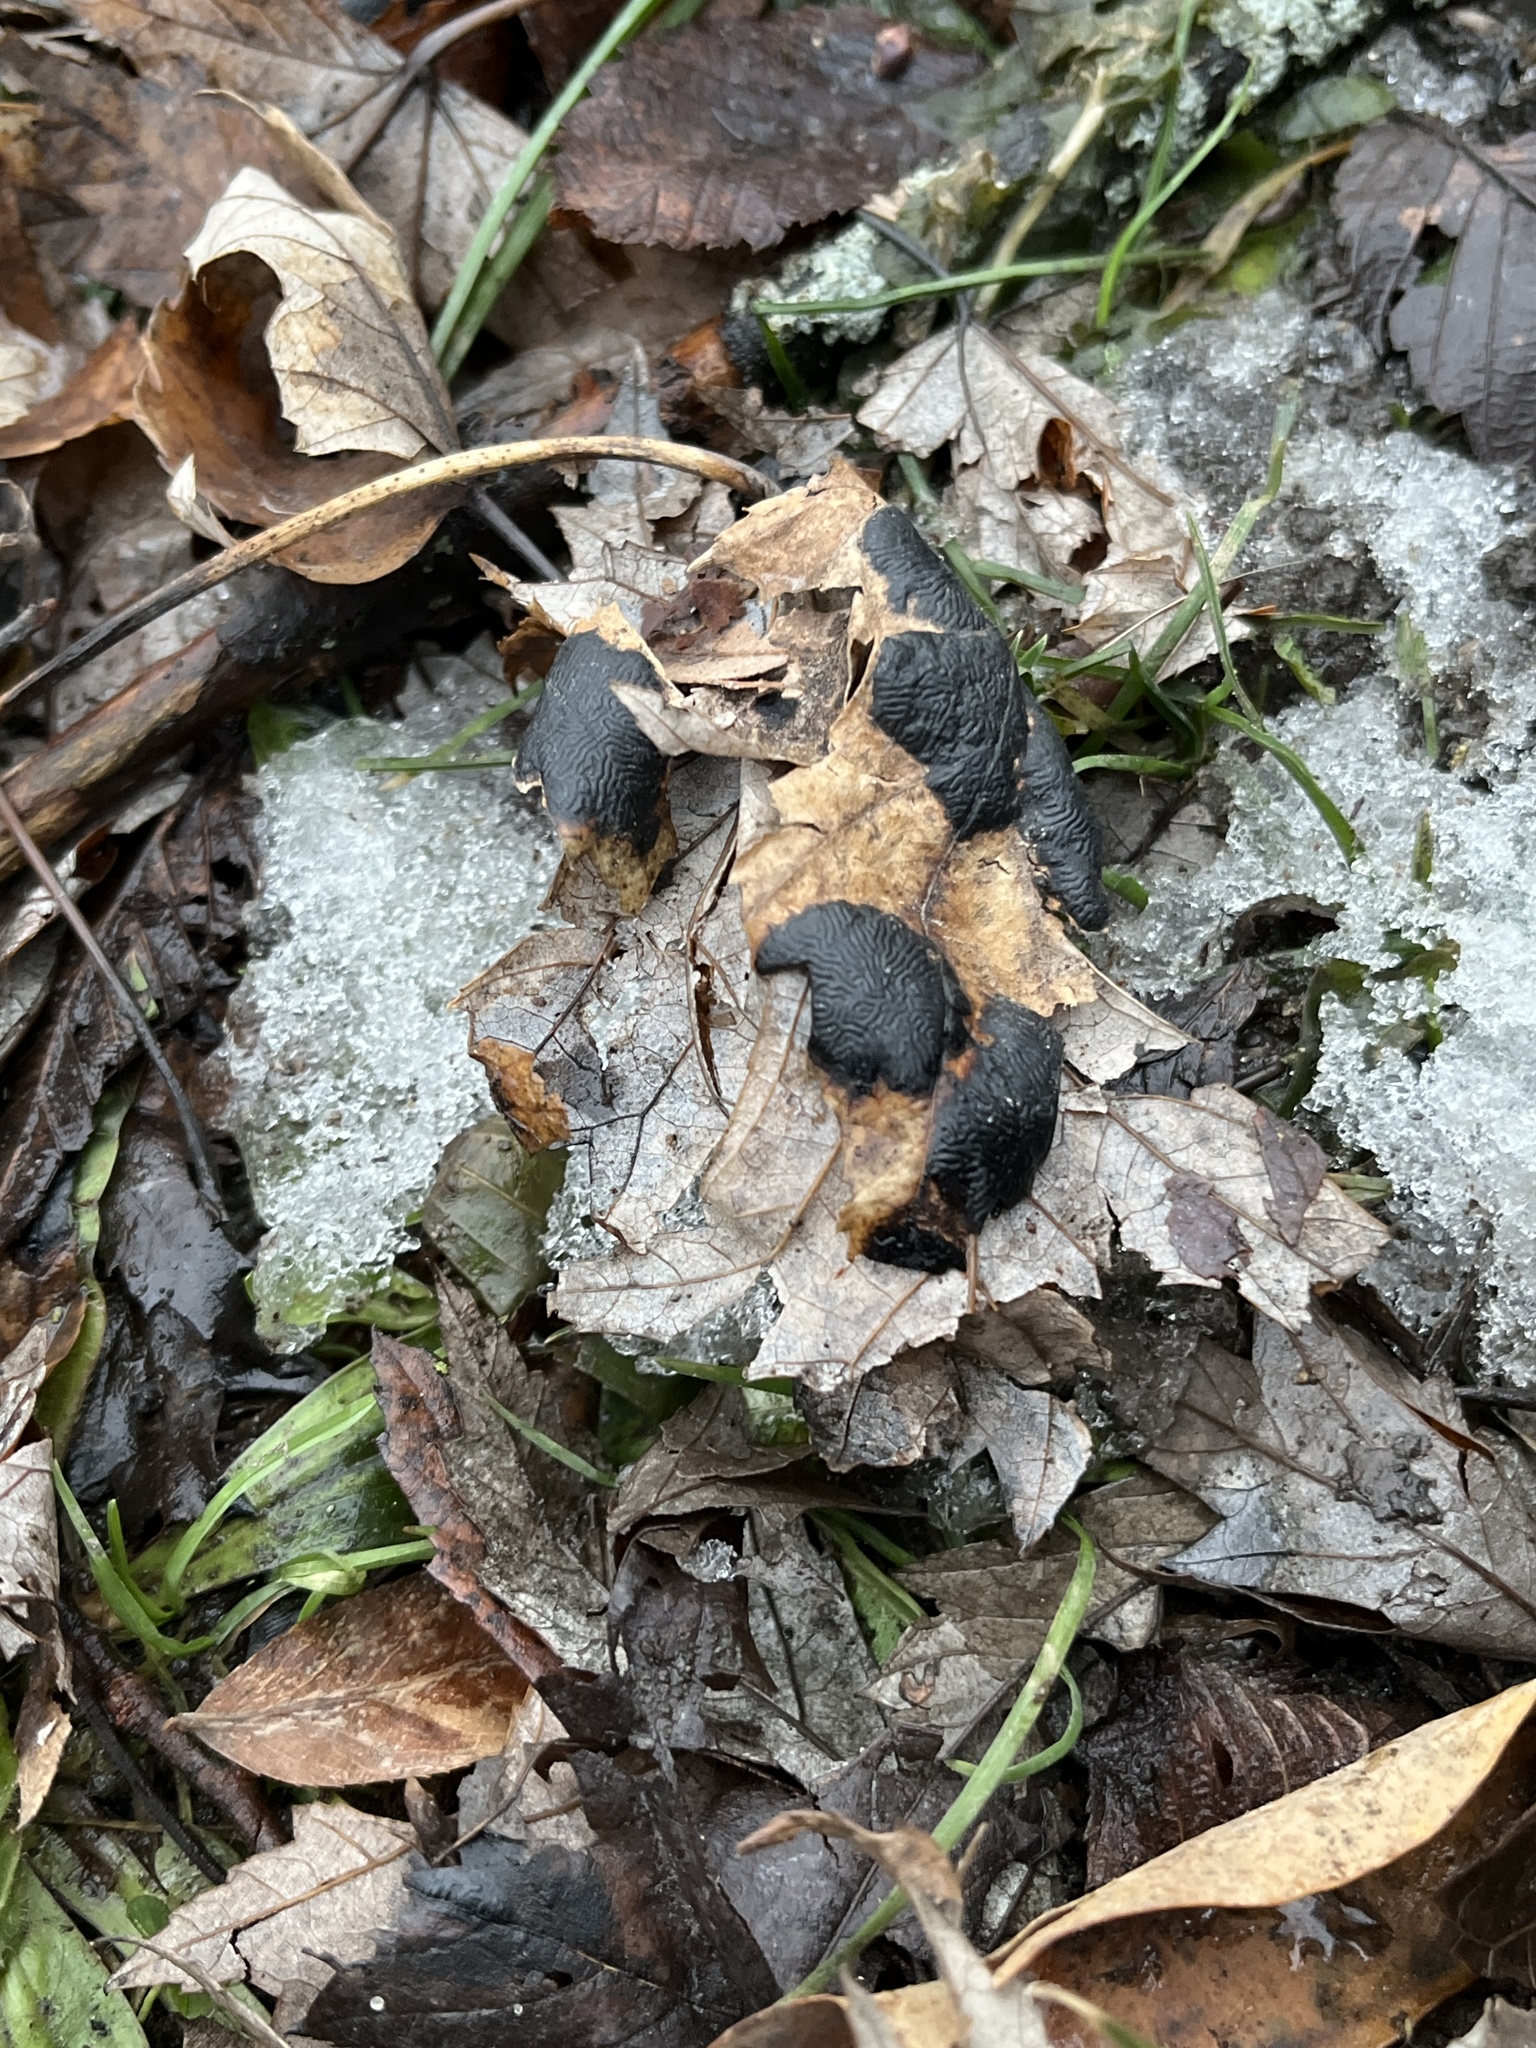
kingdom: Fungi
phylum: Ascomycota
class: Leotiomycetes
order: Rhytismatales
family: Rhytismataceae
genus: Rhytisma
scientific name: Rhytisma americanum
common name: American tar spot
